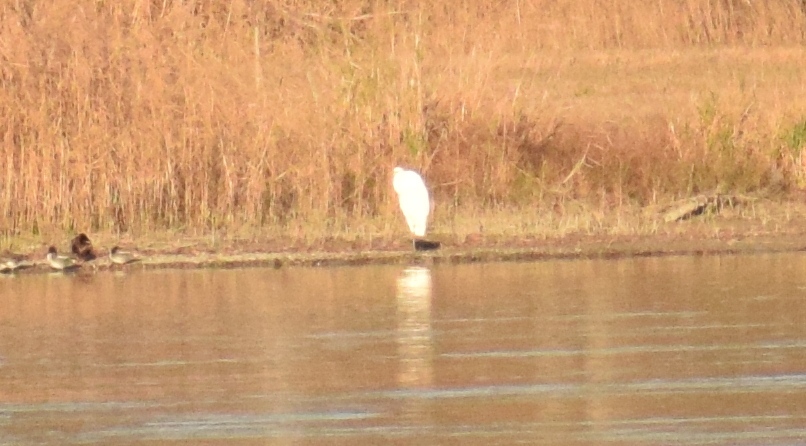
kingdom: Animalia
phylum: Chordata
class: Aves
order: Pelecaniformes
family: Ardeidae
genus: Ardea
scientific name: Ardea alba
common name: Great egret
